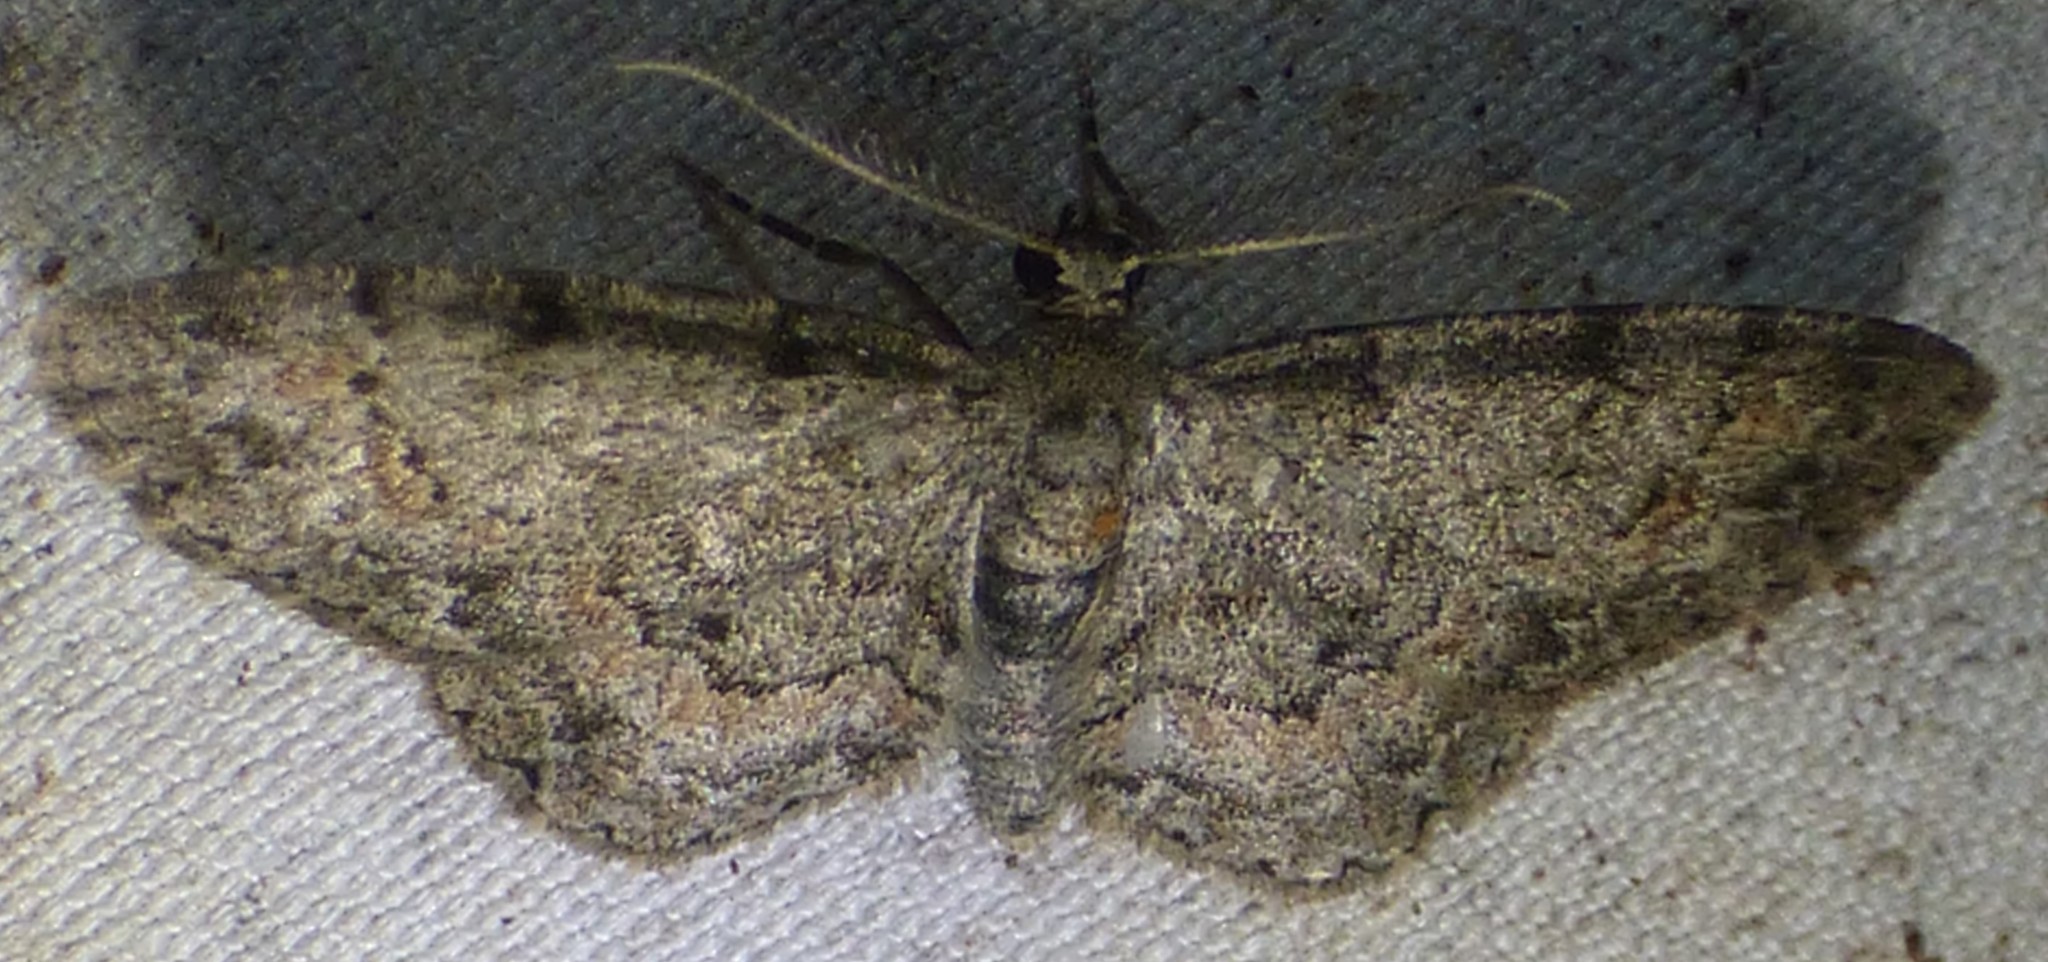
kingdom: Animalia
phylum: Arthropoda
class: Insecta
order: Lepidoptera
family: Geometridae
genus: Glenoides
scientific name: Glenoides texanaria
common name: Texas gray
